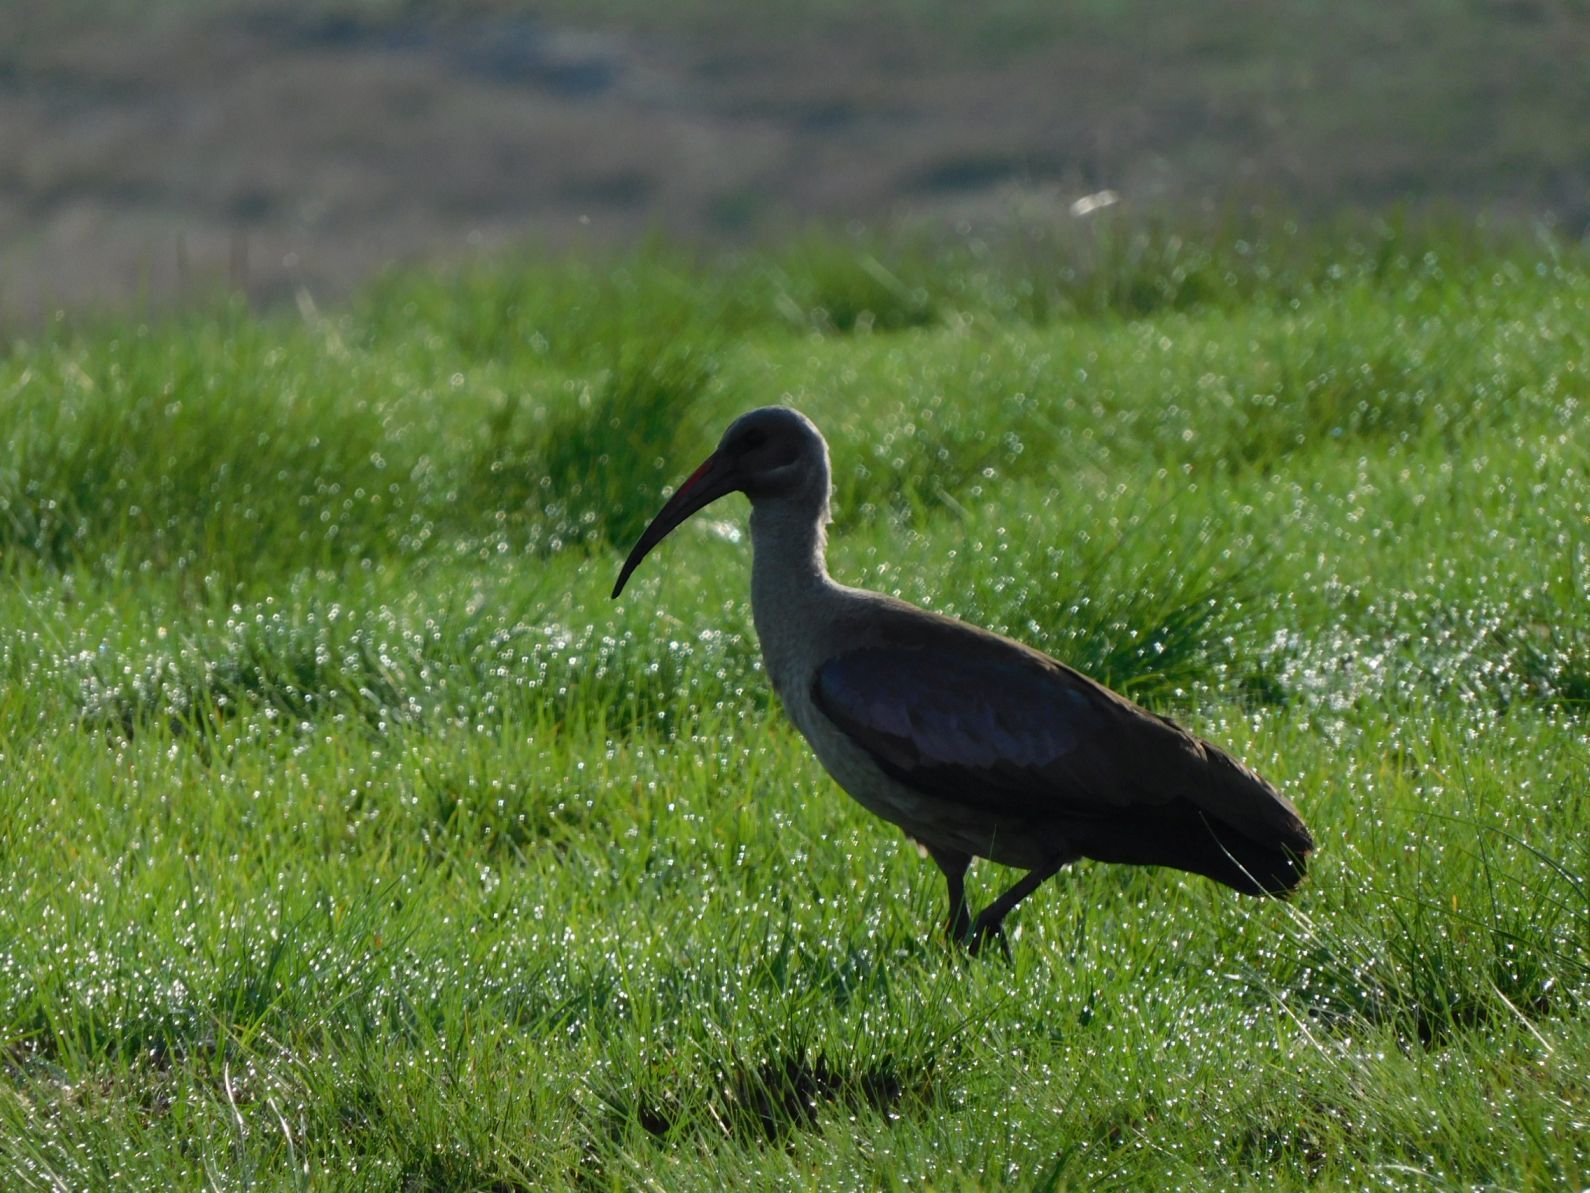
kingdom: Animalia
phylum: Chordata
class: Aves
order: Pelecaniformes
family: Threskiornithidae
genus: Bostrychia
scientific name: Bostrychia hagedash
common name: Hadada ibis
